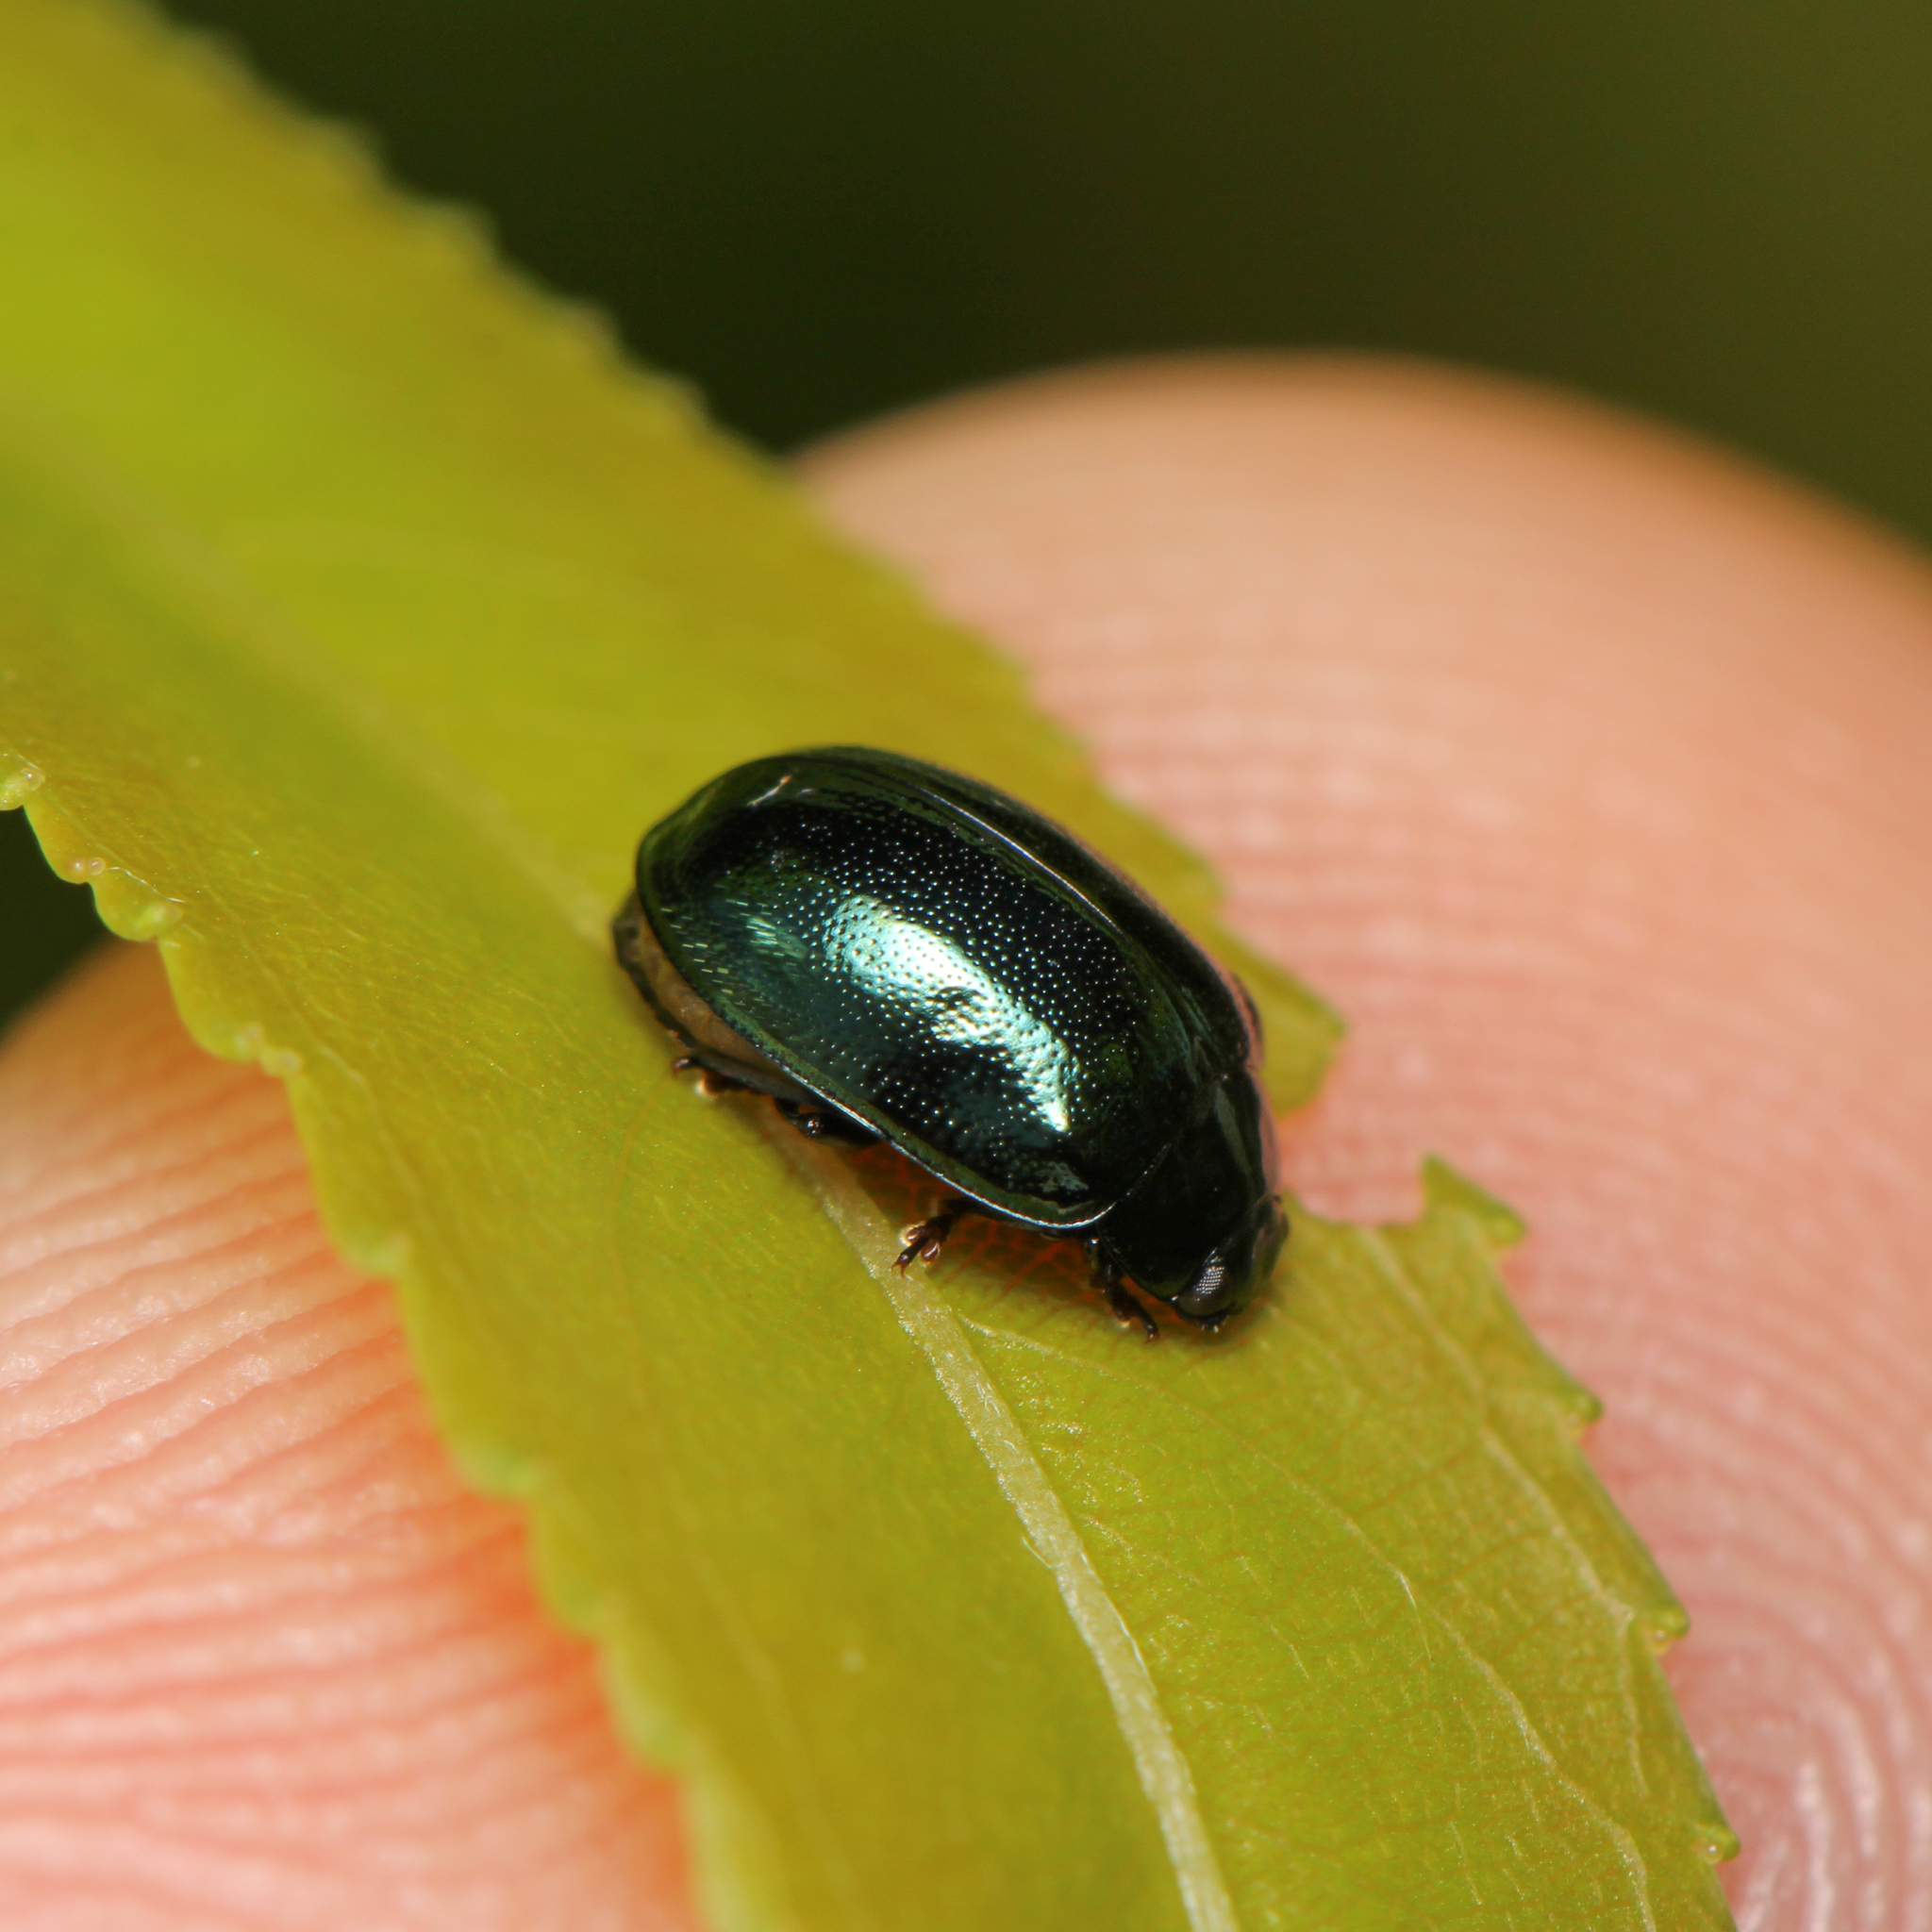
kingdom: Animalia
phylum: Arthropoda
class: Insecta
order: Coleoptera
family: Chrysomelidae
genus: Plagiodera
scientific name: Plagiodera versicolora
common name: Imported willow leaf beetle
